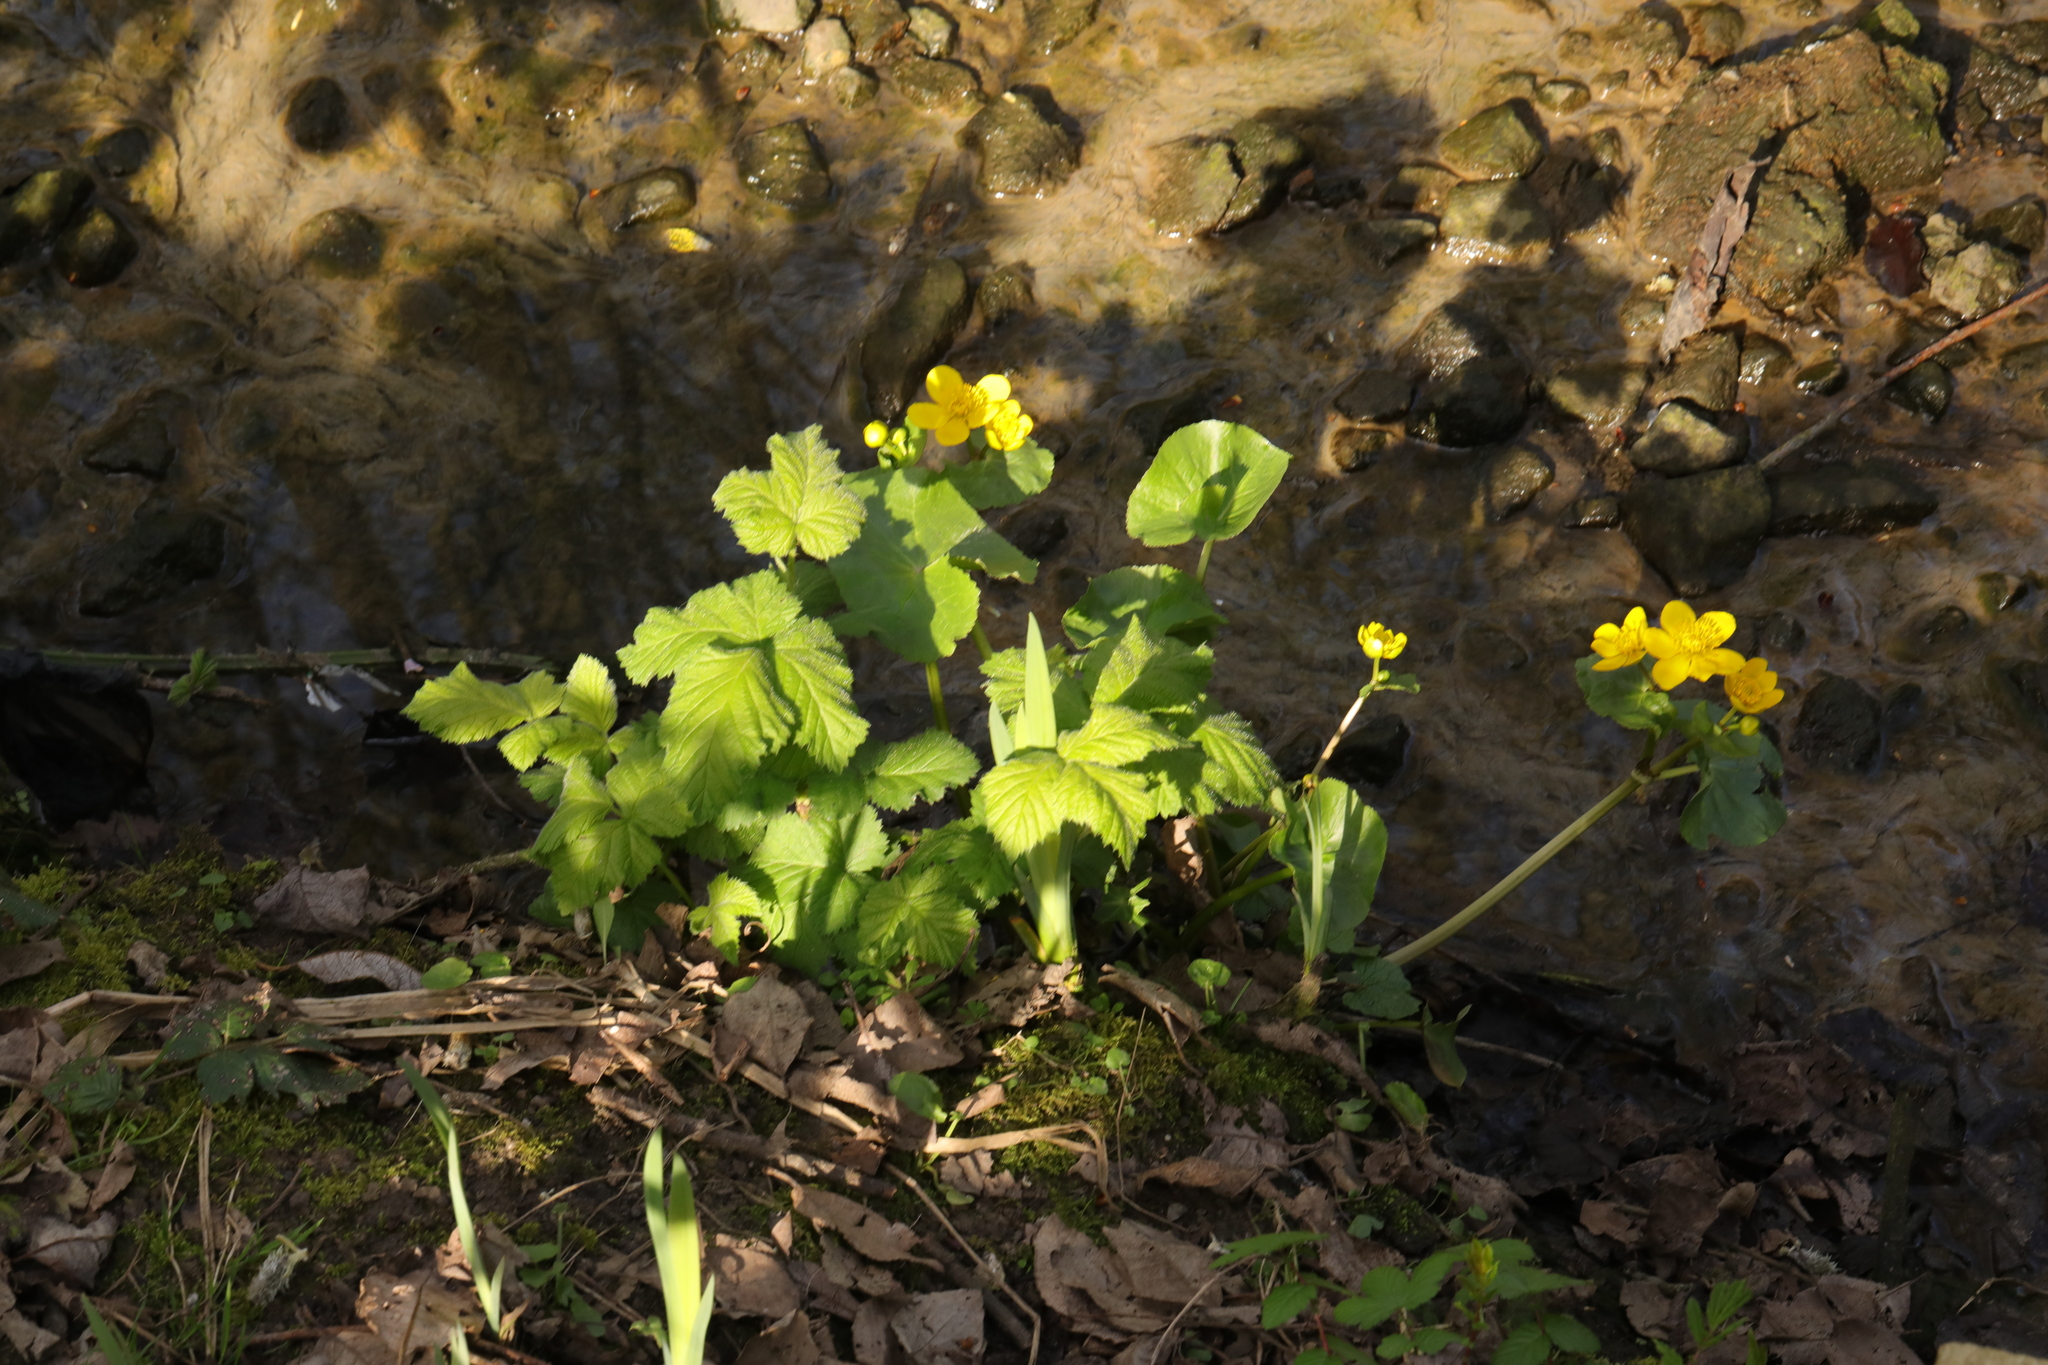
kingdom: Plantae
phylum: Tracheophyta
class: Magnoliopsida
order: Ranunculales
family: Ranunculaceae
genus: Caltha
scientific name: Caltha palustris
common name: Marsh marigold
